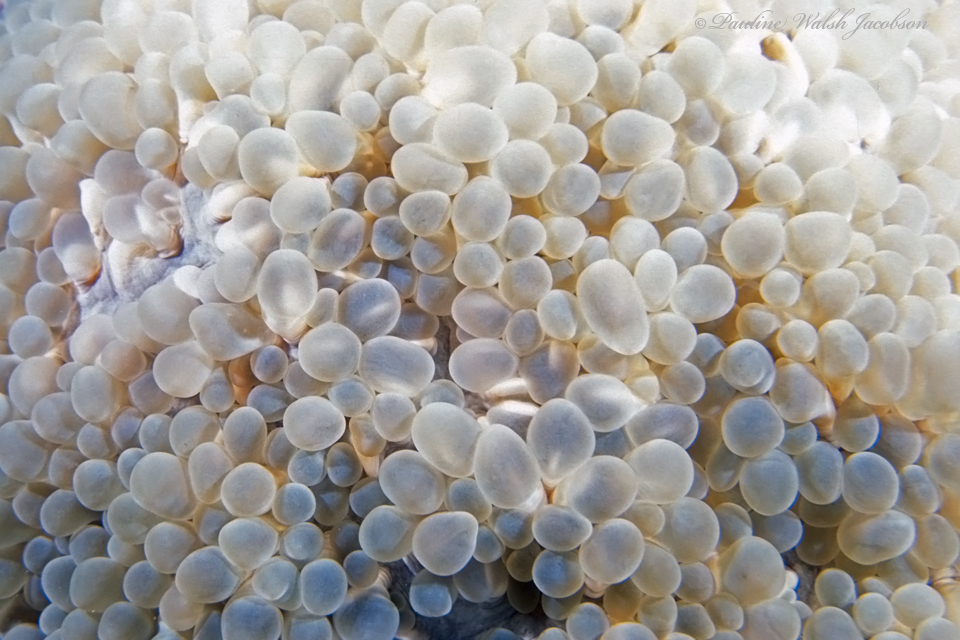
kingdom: Animalia
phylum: Cnidaria
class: Anthozoa
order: Scleractinia
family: Plerogyridae
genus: Physogyra
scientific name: Physogyra lichtensteini
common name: Tipped bubblegum coral
